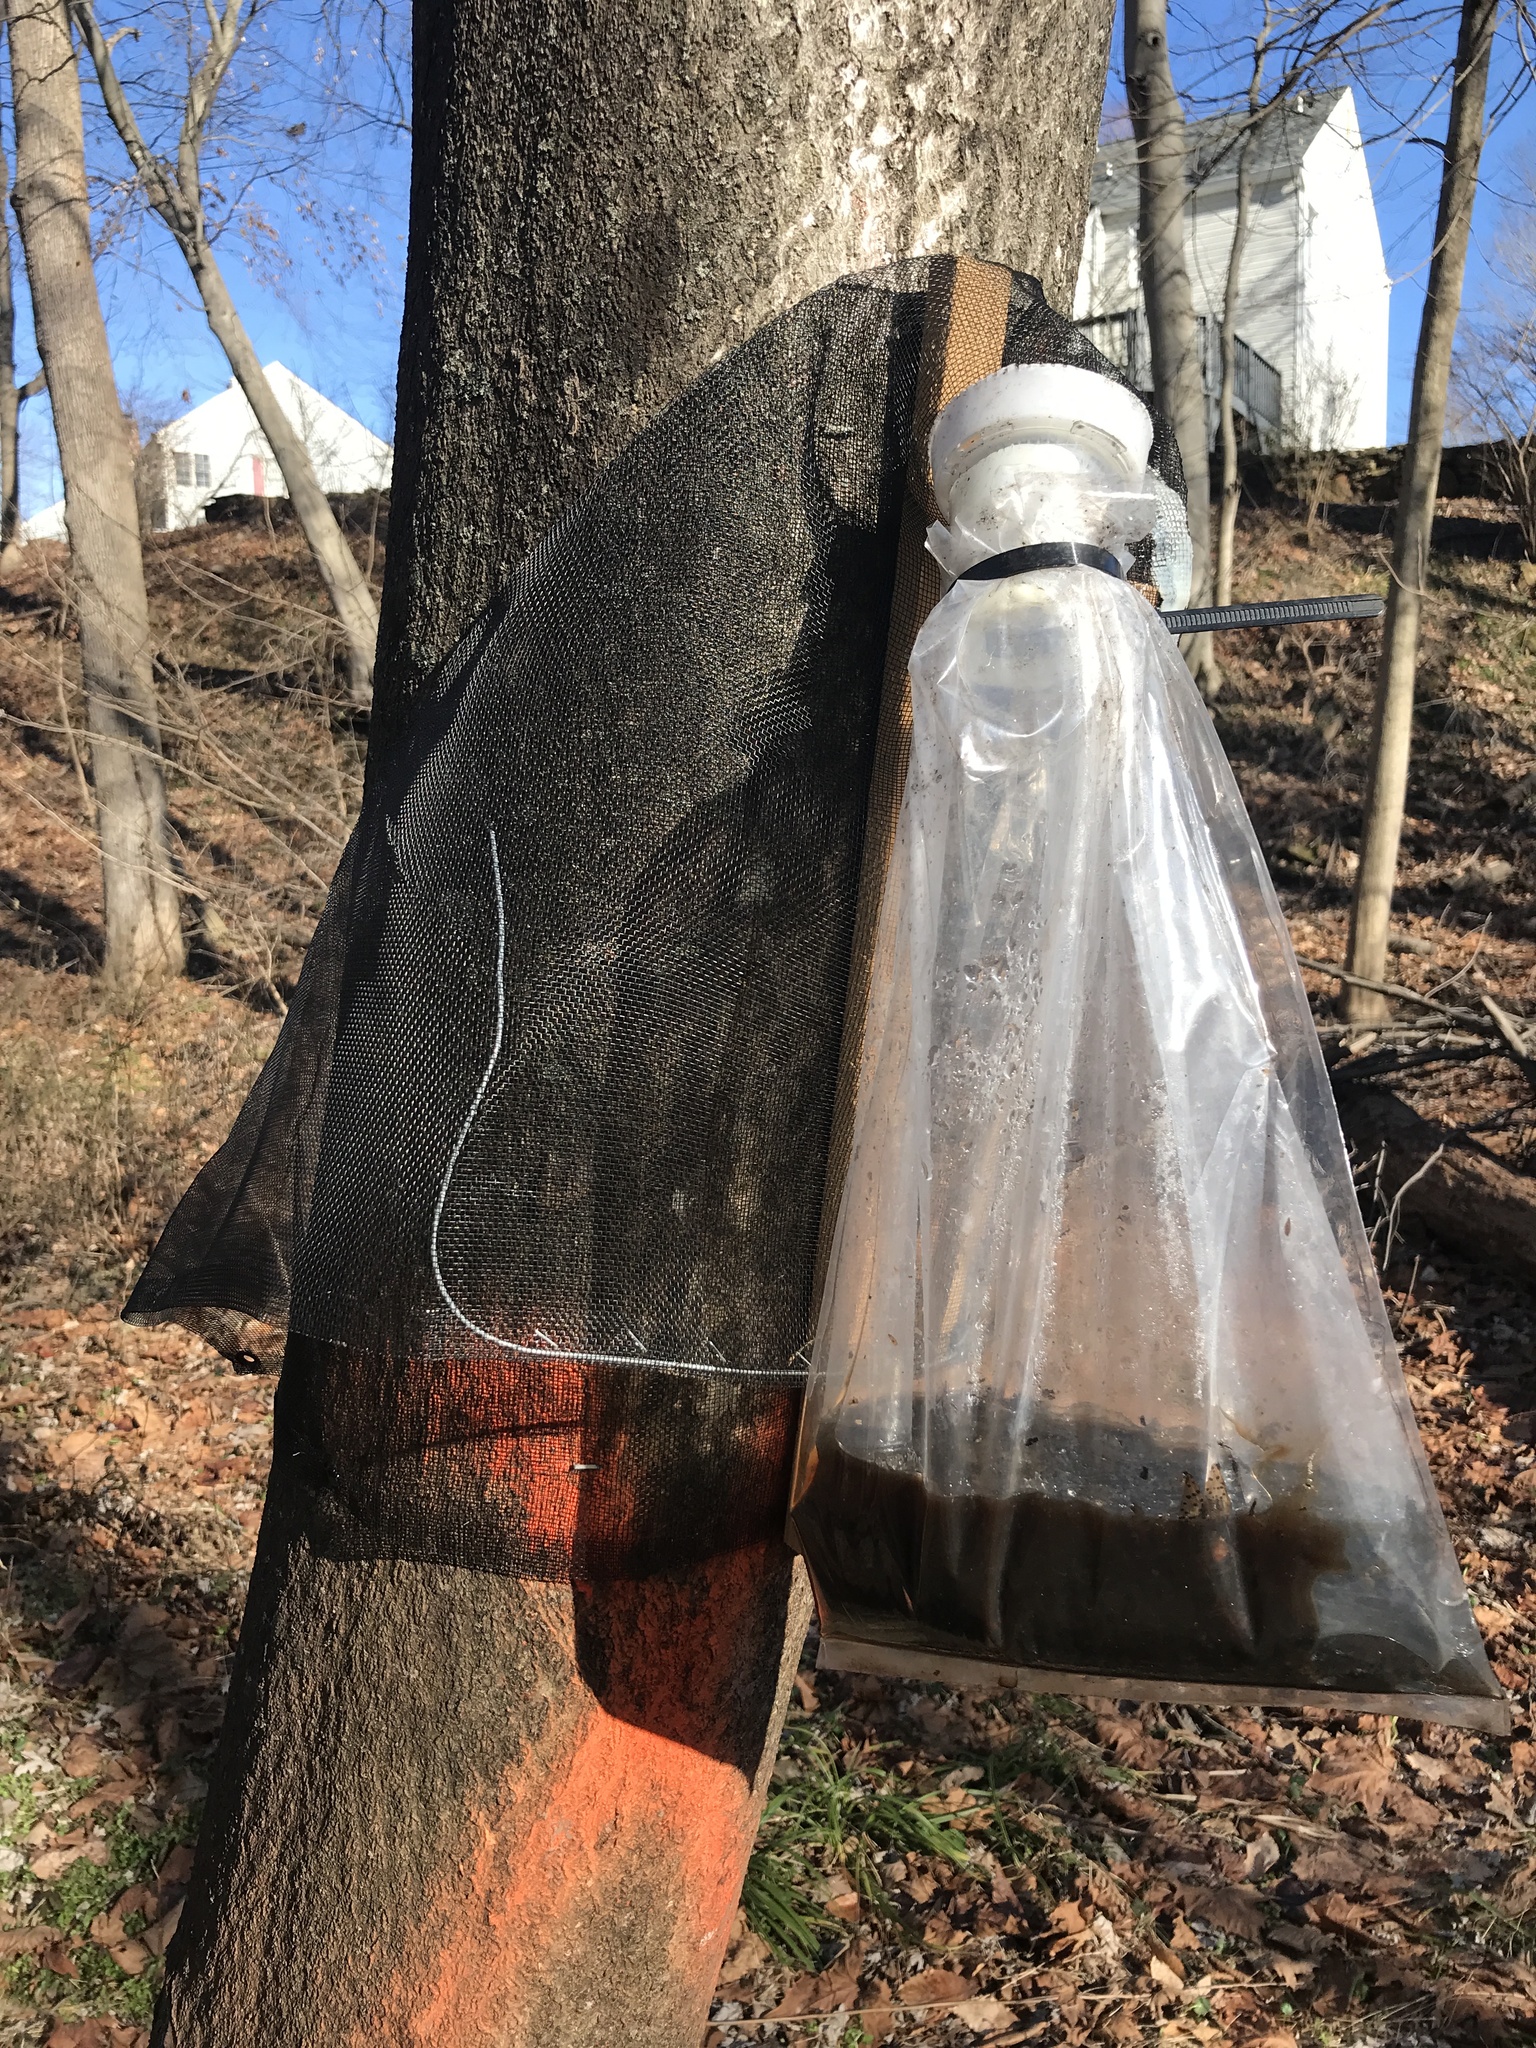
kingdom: Plantae
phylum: Tracheophyta
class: Magnoliopsida
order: Sapindales
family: Simaroubaceae
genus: Ailanthus
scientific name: Ailanthus altissima
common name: Tree-of-heaven
